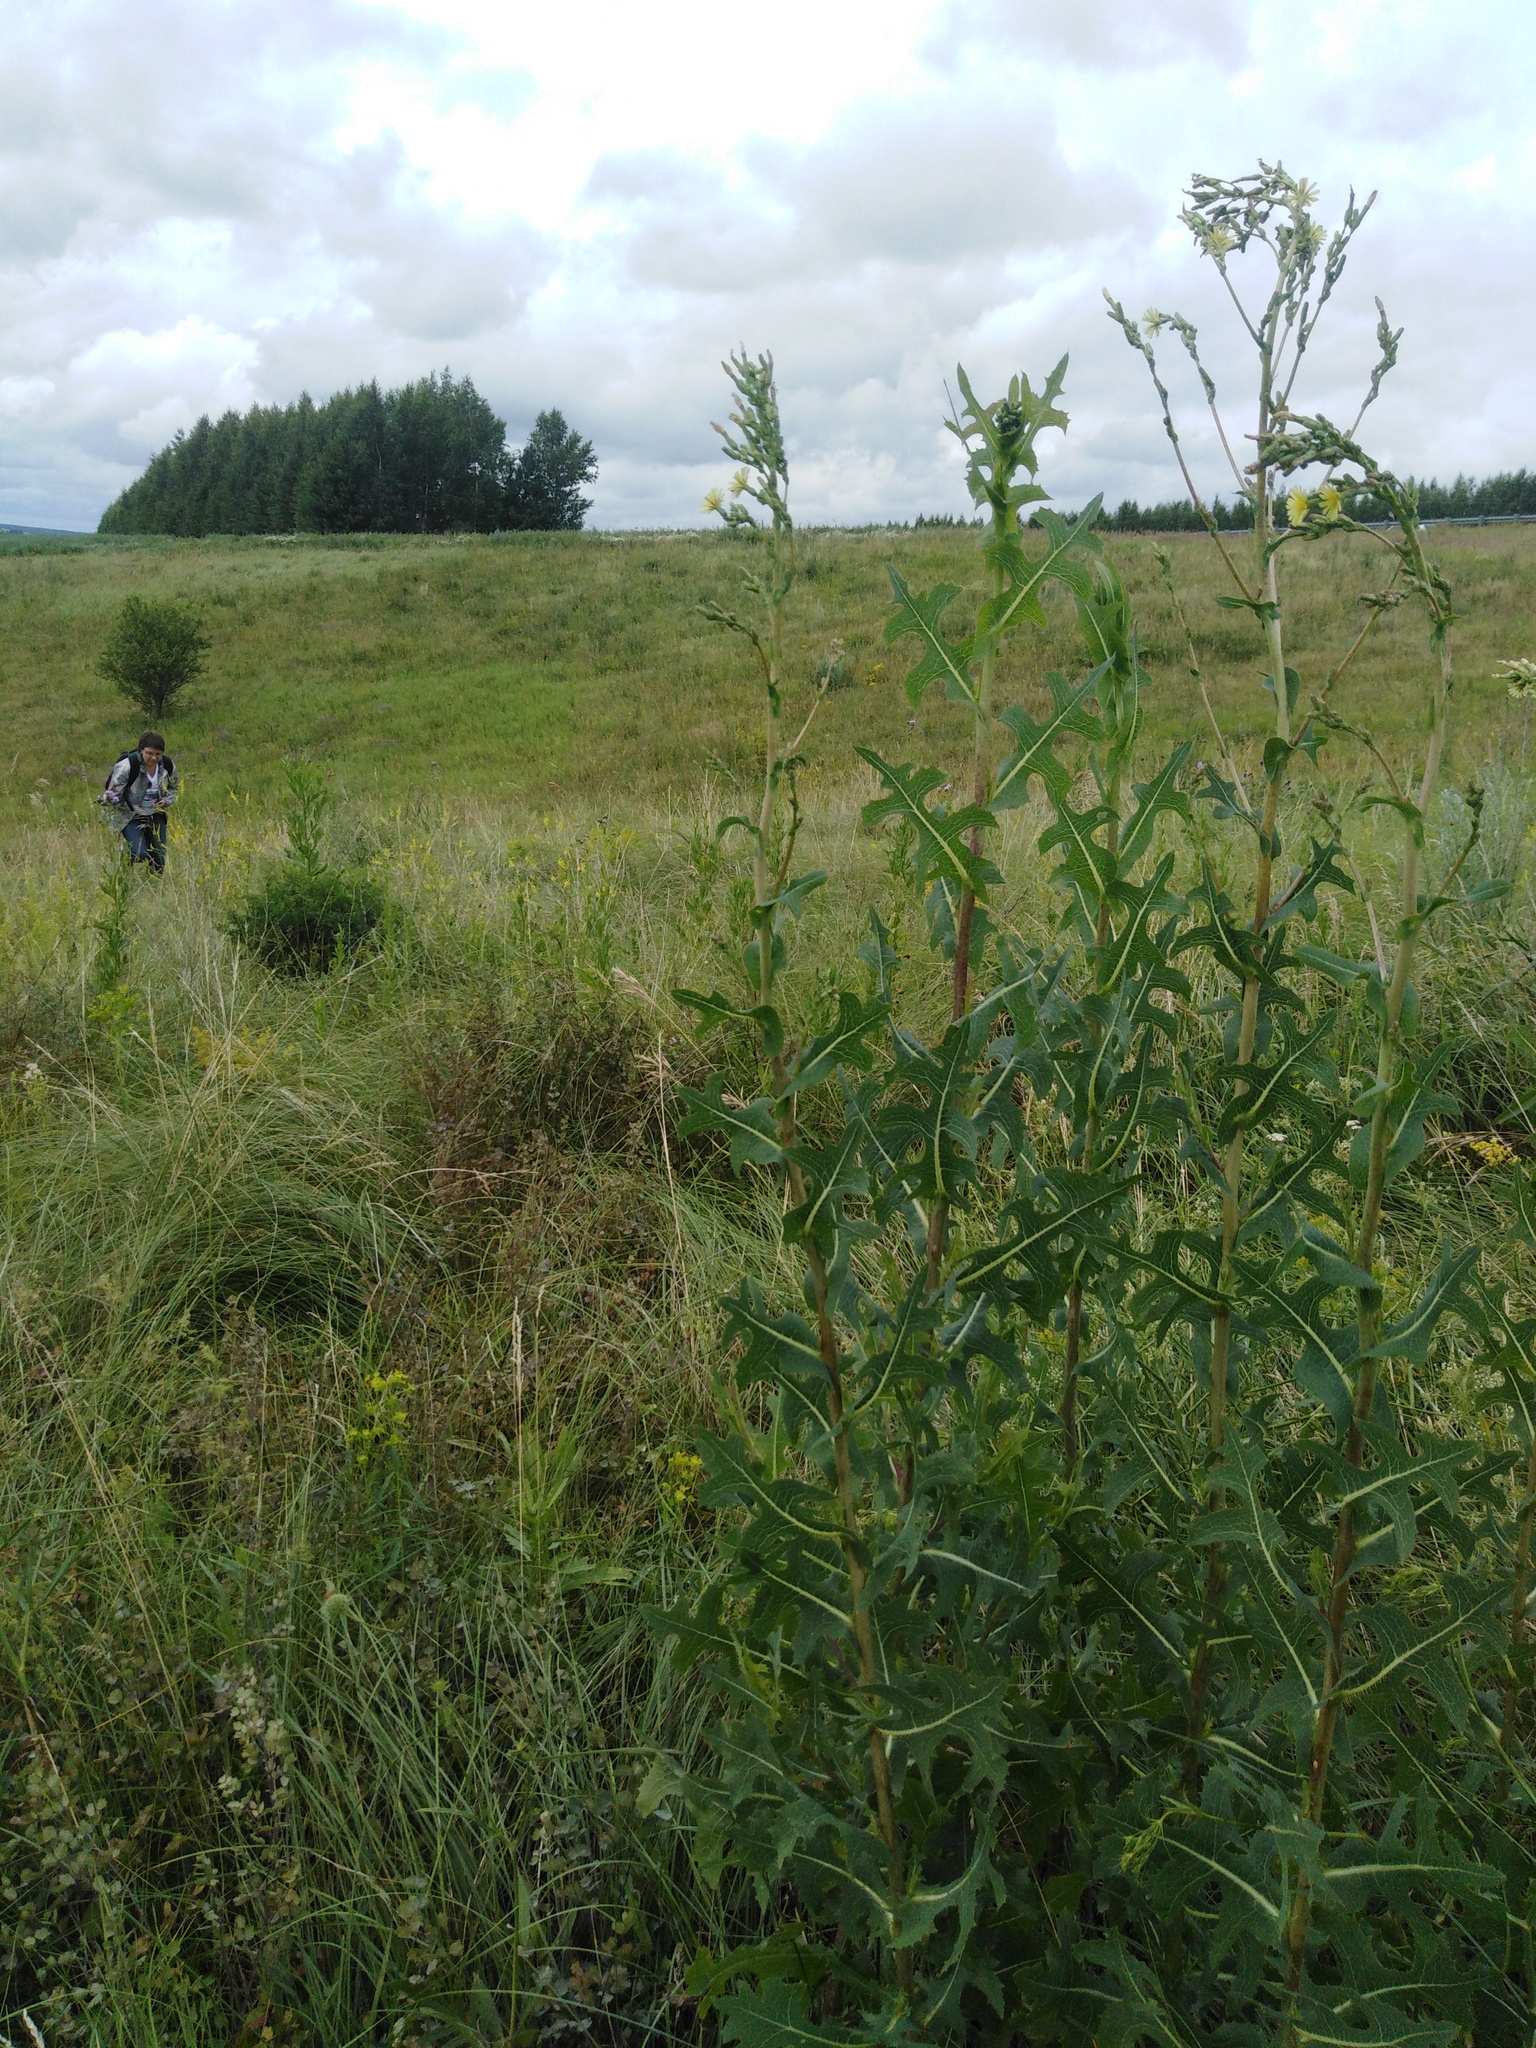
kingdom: Plantae
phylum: Tracheophyta
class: Magnoliopsida
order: Asterales
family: Asteraceae
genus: Lactuca
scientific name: Lactuca serriola
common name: Prickly lettuce
